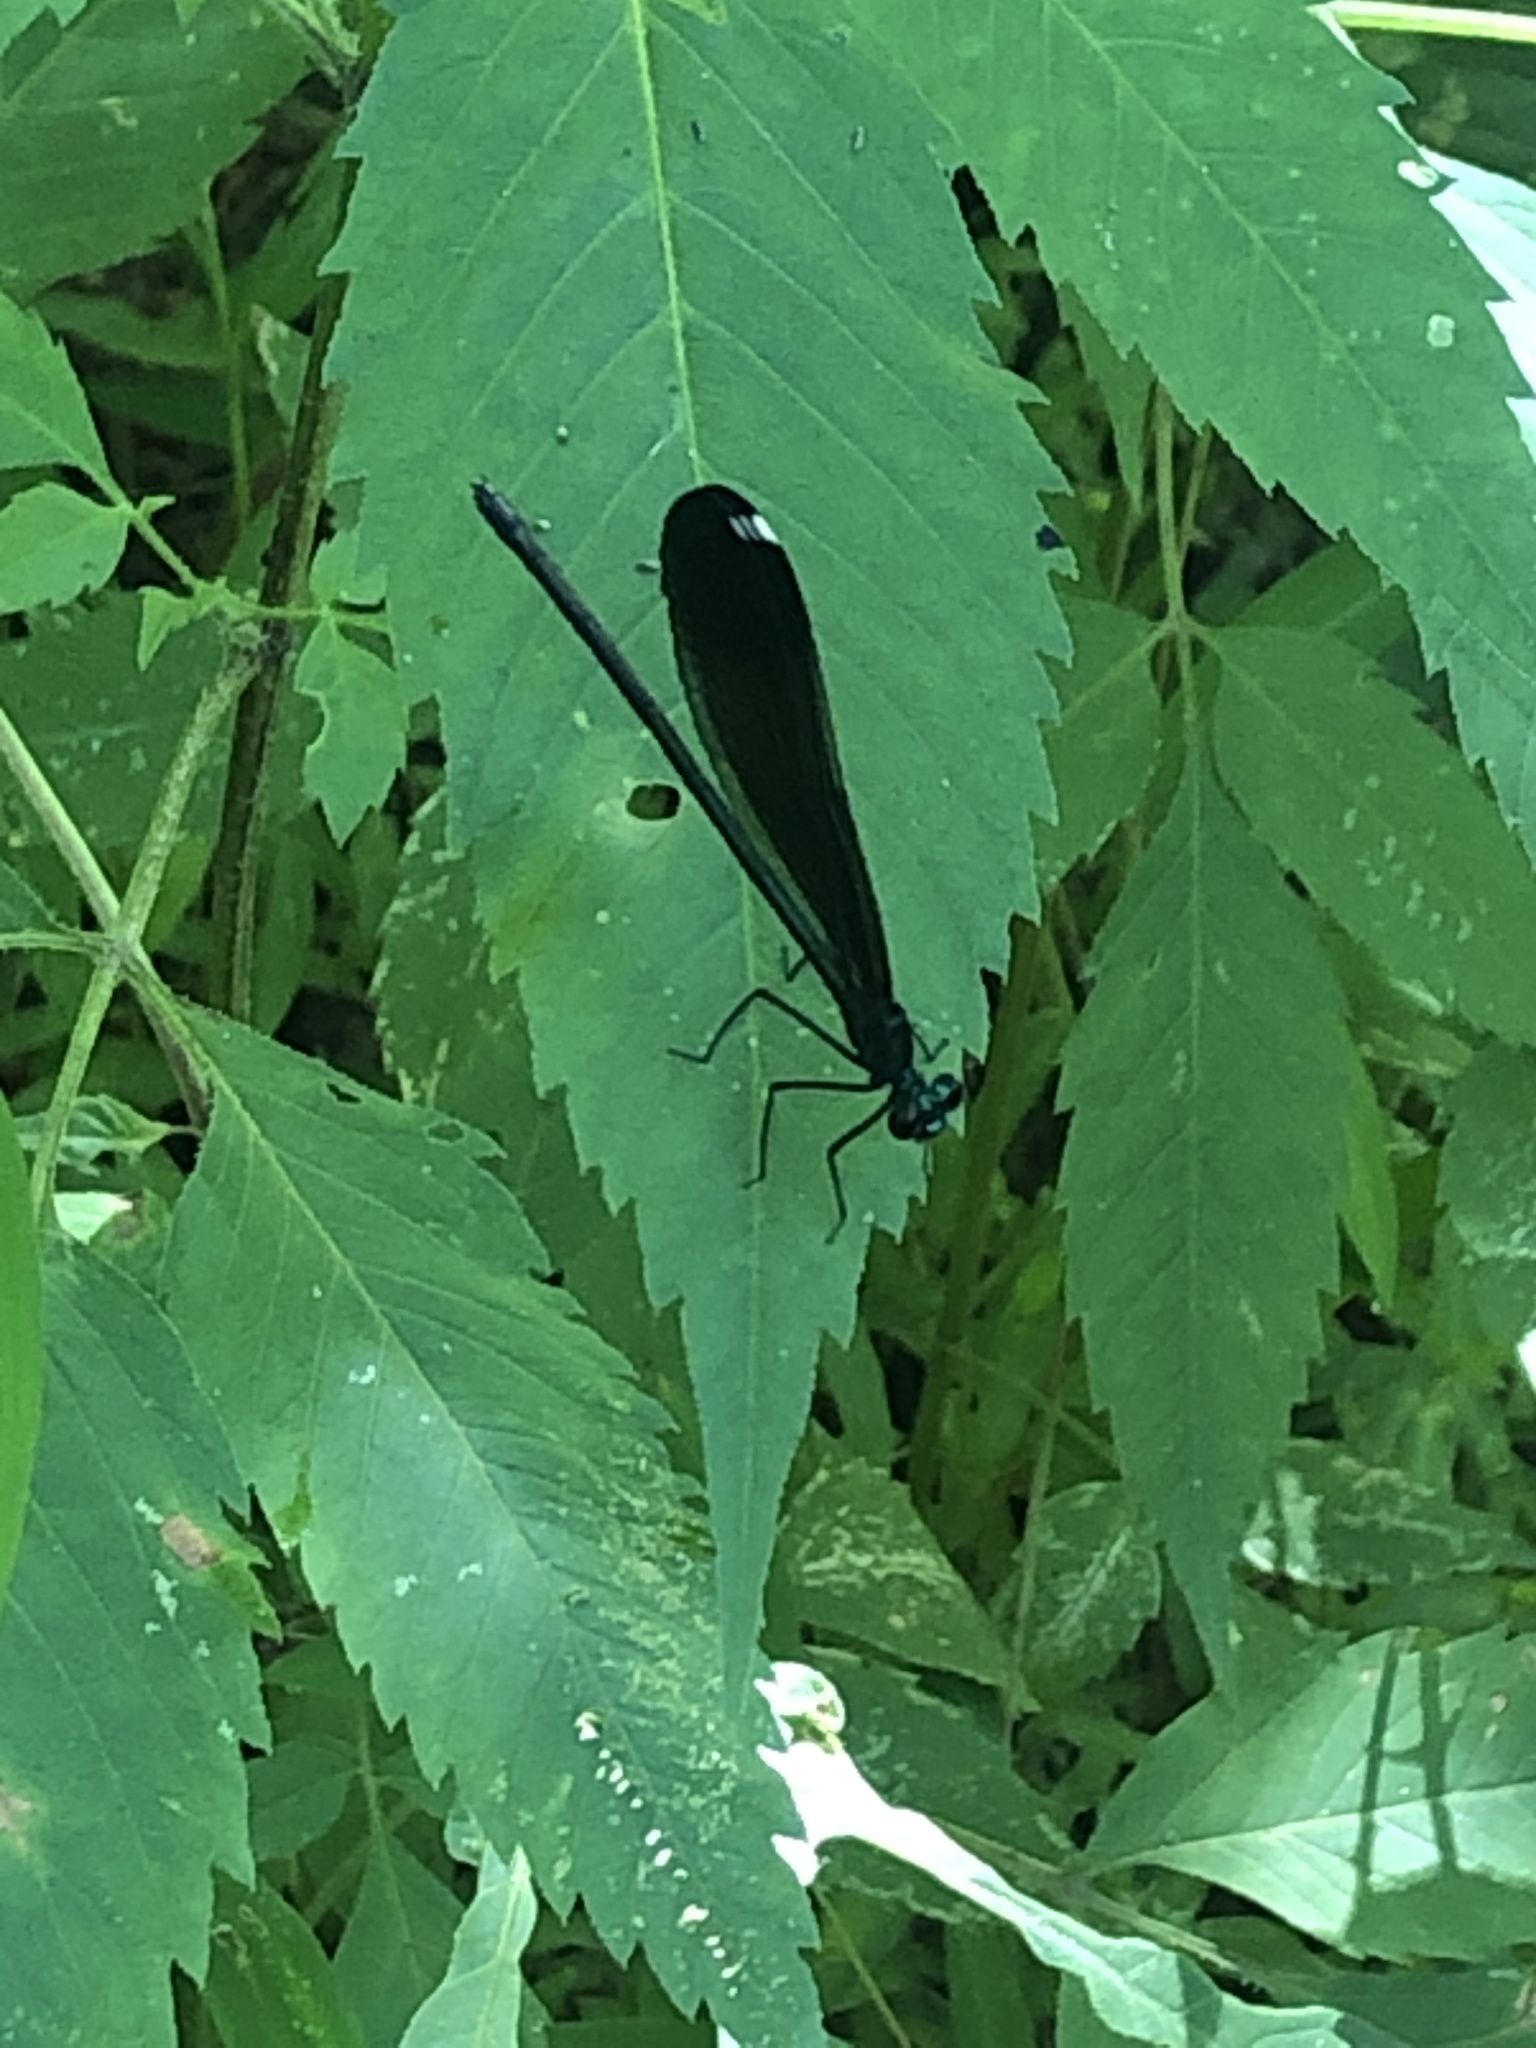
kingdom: Animalia
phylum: Arthropoda
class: Insecta
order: Odonata
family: Calopterygidae
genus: Calopteryx
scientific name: Calopteryx maculata
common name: Ebony jewelwing
